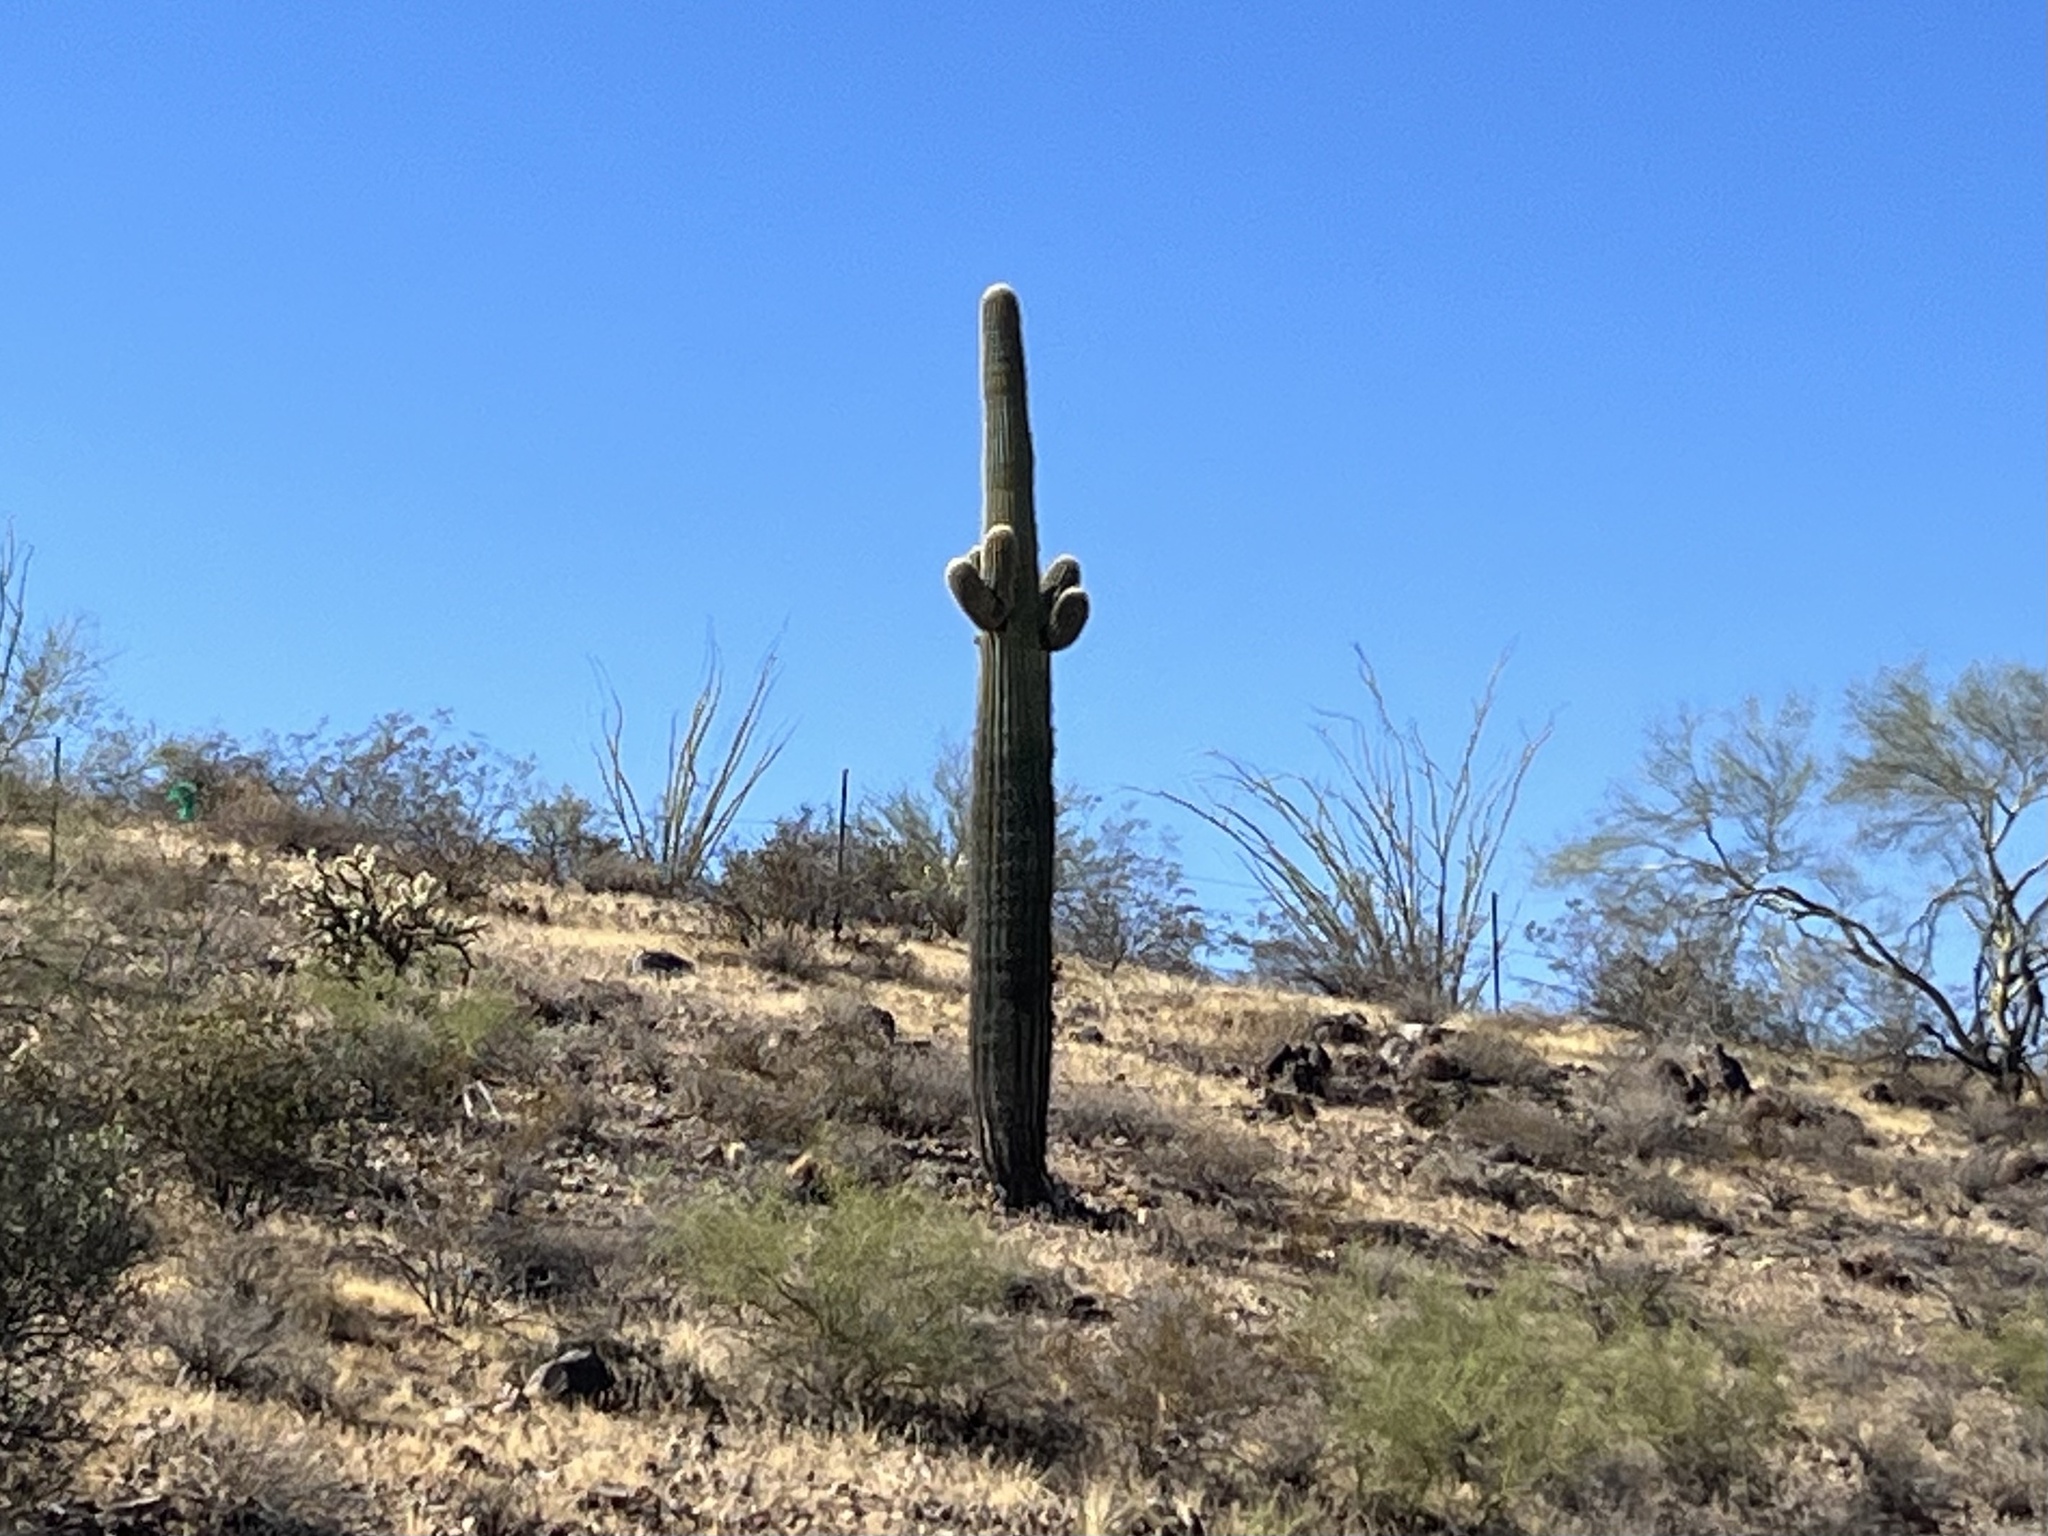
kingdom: Plantae
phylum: Tracheophyta
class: Magnoliopsida
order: Caryophyllales
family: Cactaceae
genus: Carnegiea
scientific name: Carnegiea gigantea
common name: Saguaro
